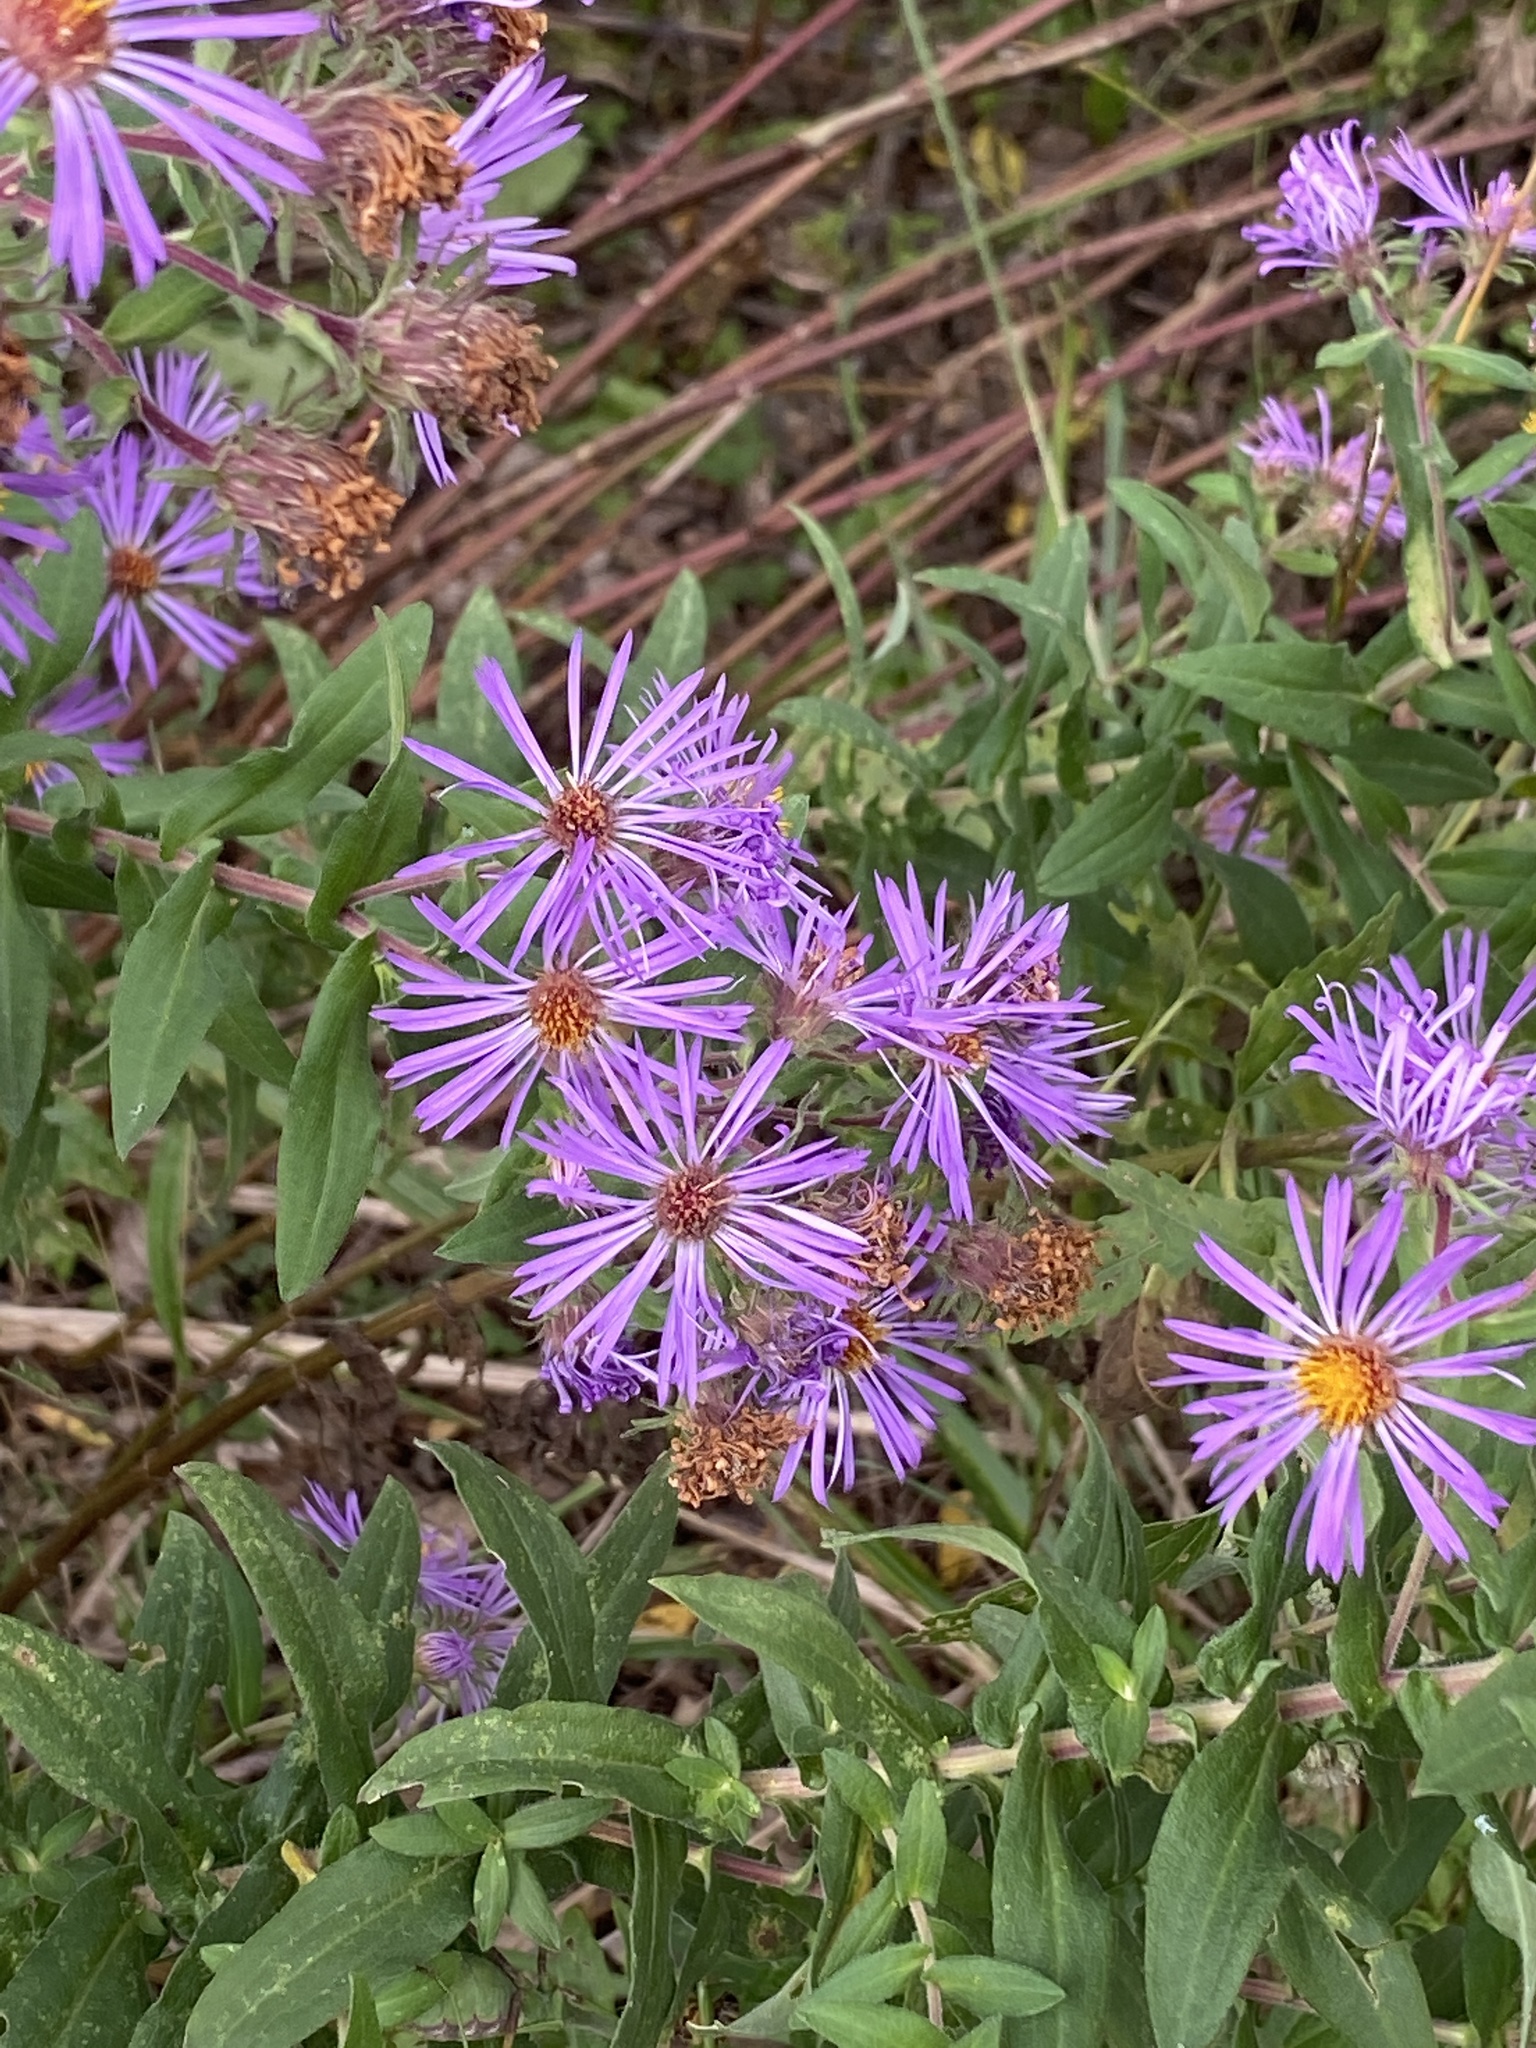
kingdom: Plantae
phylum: Tracheophyta
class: Magnoliopsida
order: Asterales
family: Asteraceae
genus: Symphyotrichum
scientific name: Symphyotrichum novae-angliae
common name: Michaelmas daisy
